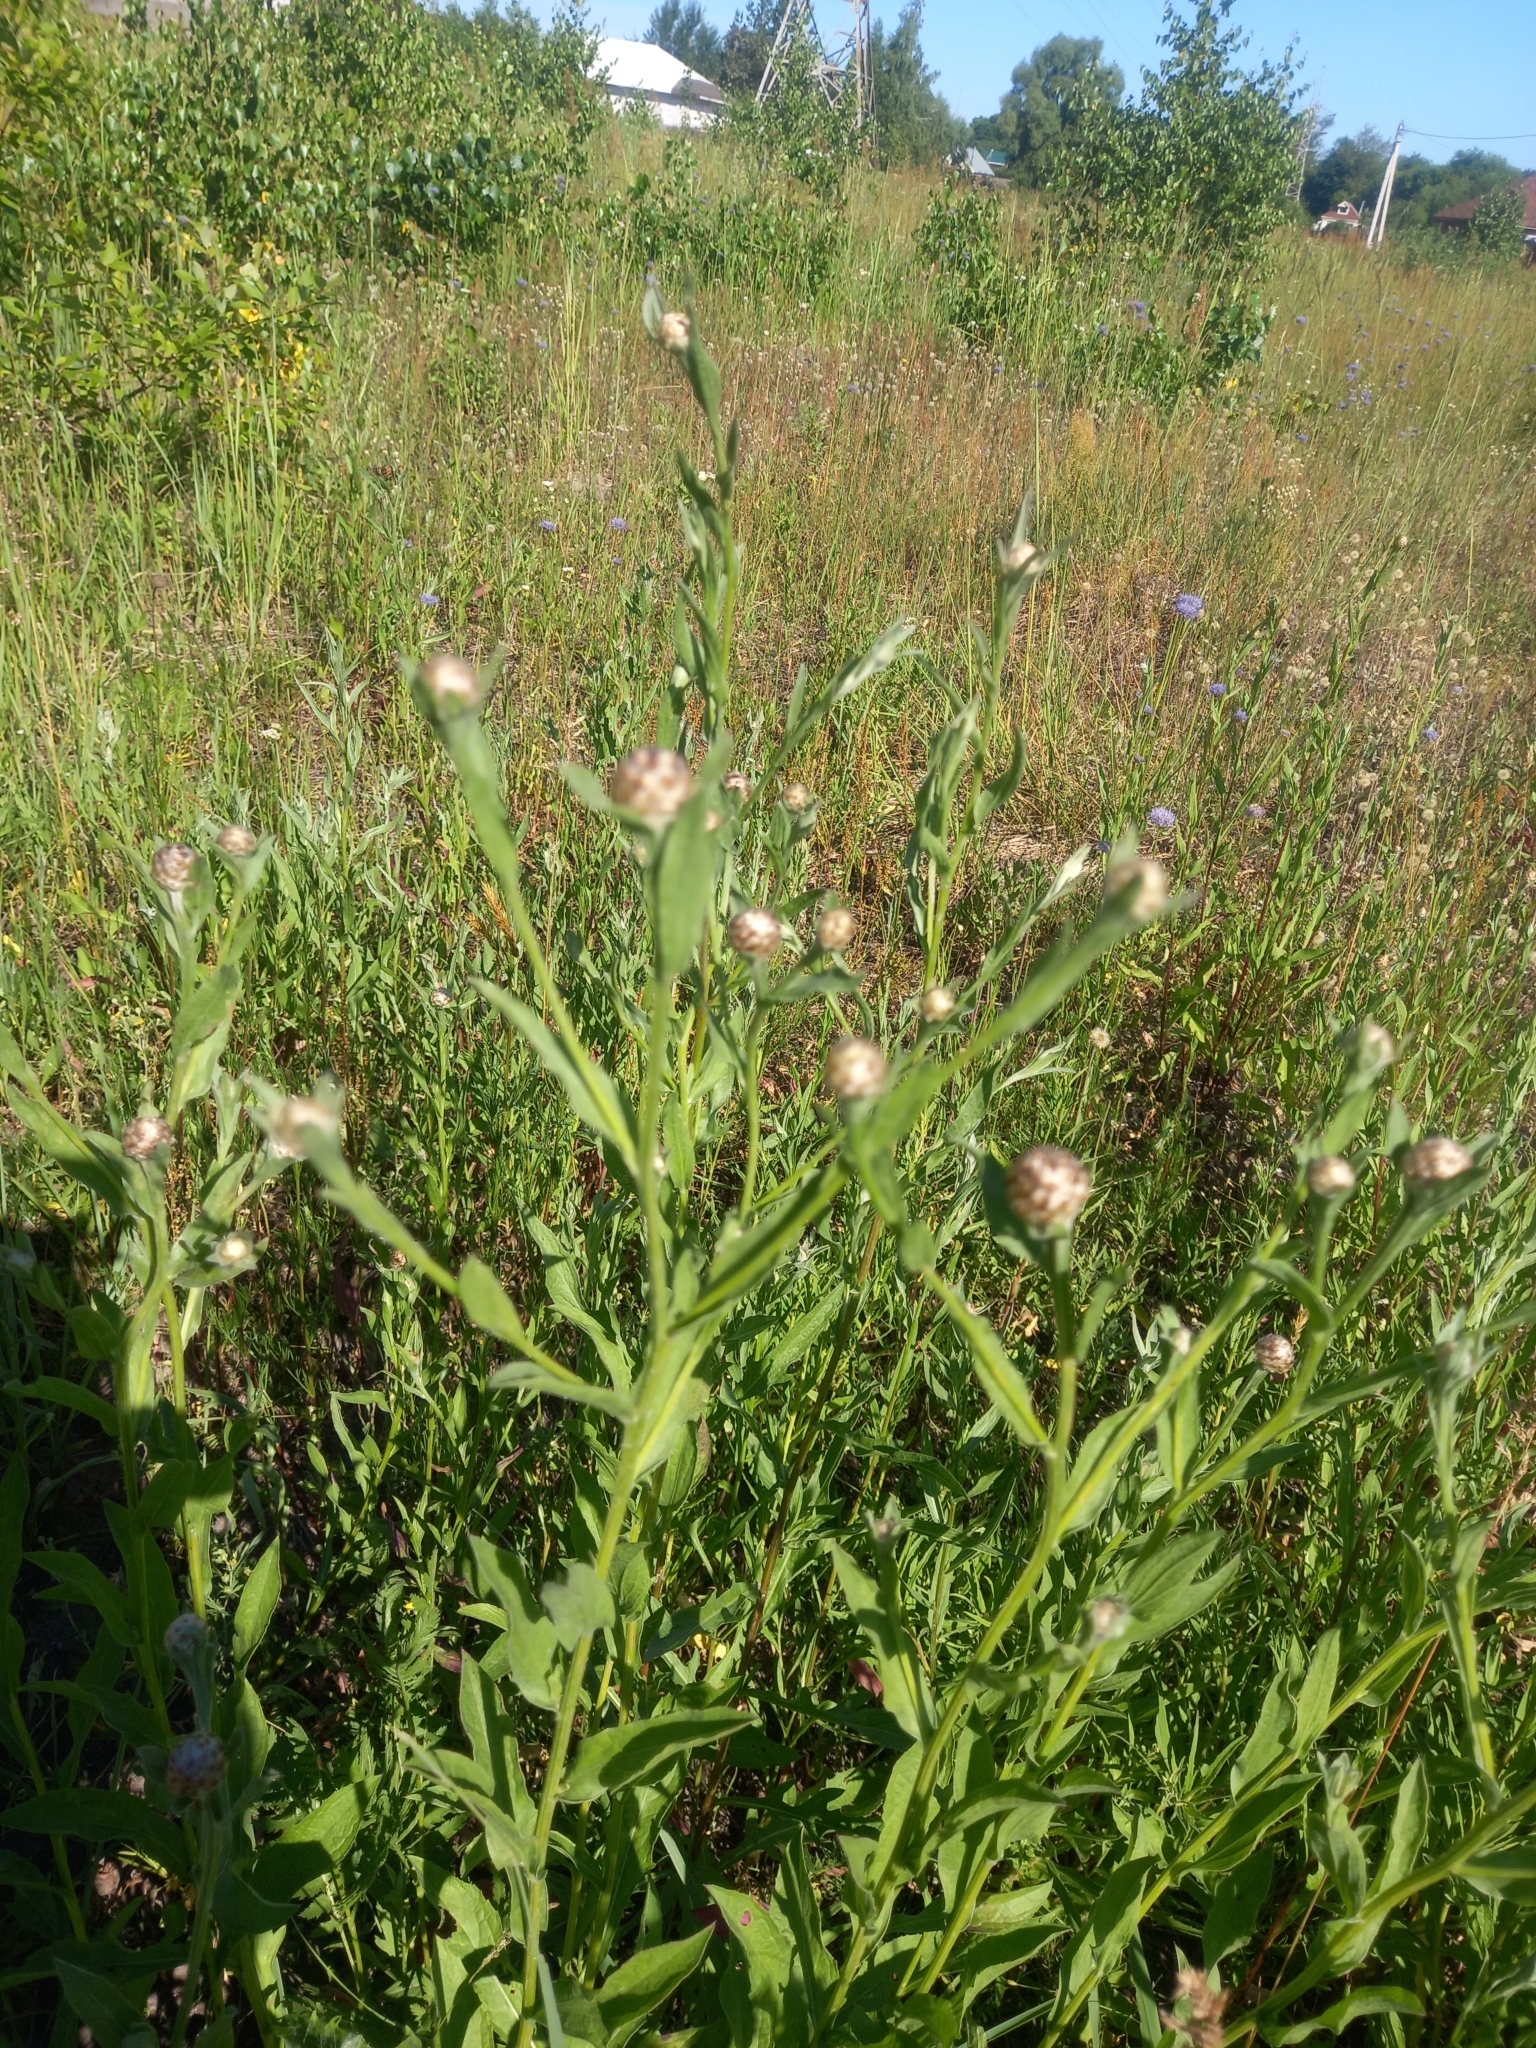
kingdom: Plantae
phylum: Tracheophyta
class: Magnoliopsida
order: Asterales
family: Asteraceae
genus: Centaurea
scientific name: Centaurea jacea
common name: Brown knapweed
